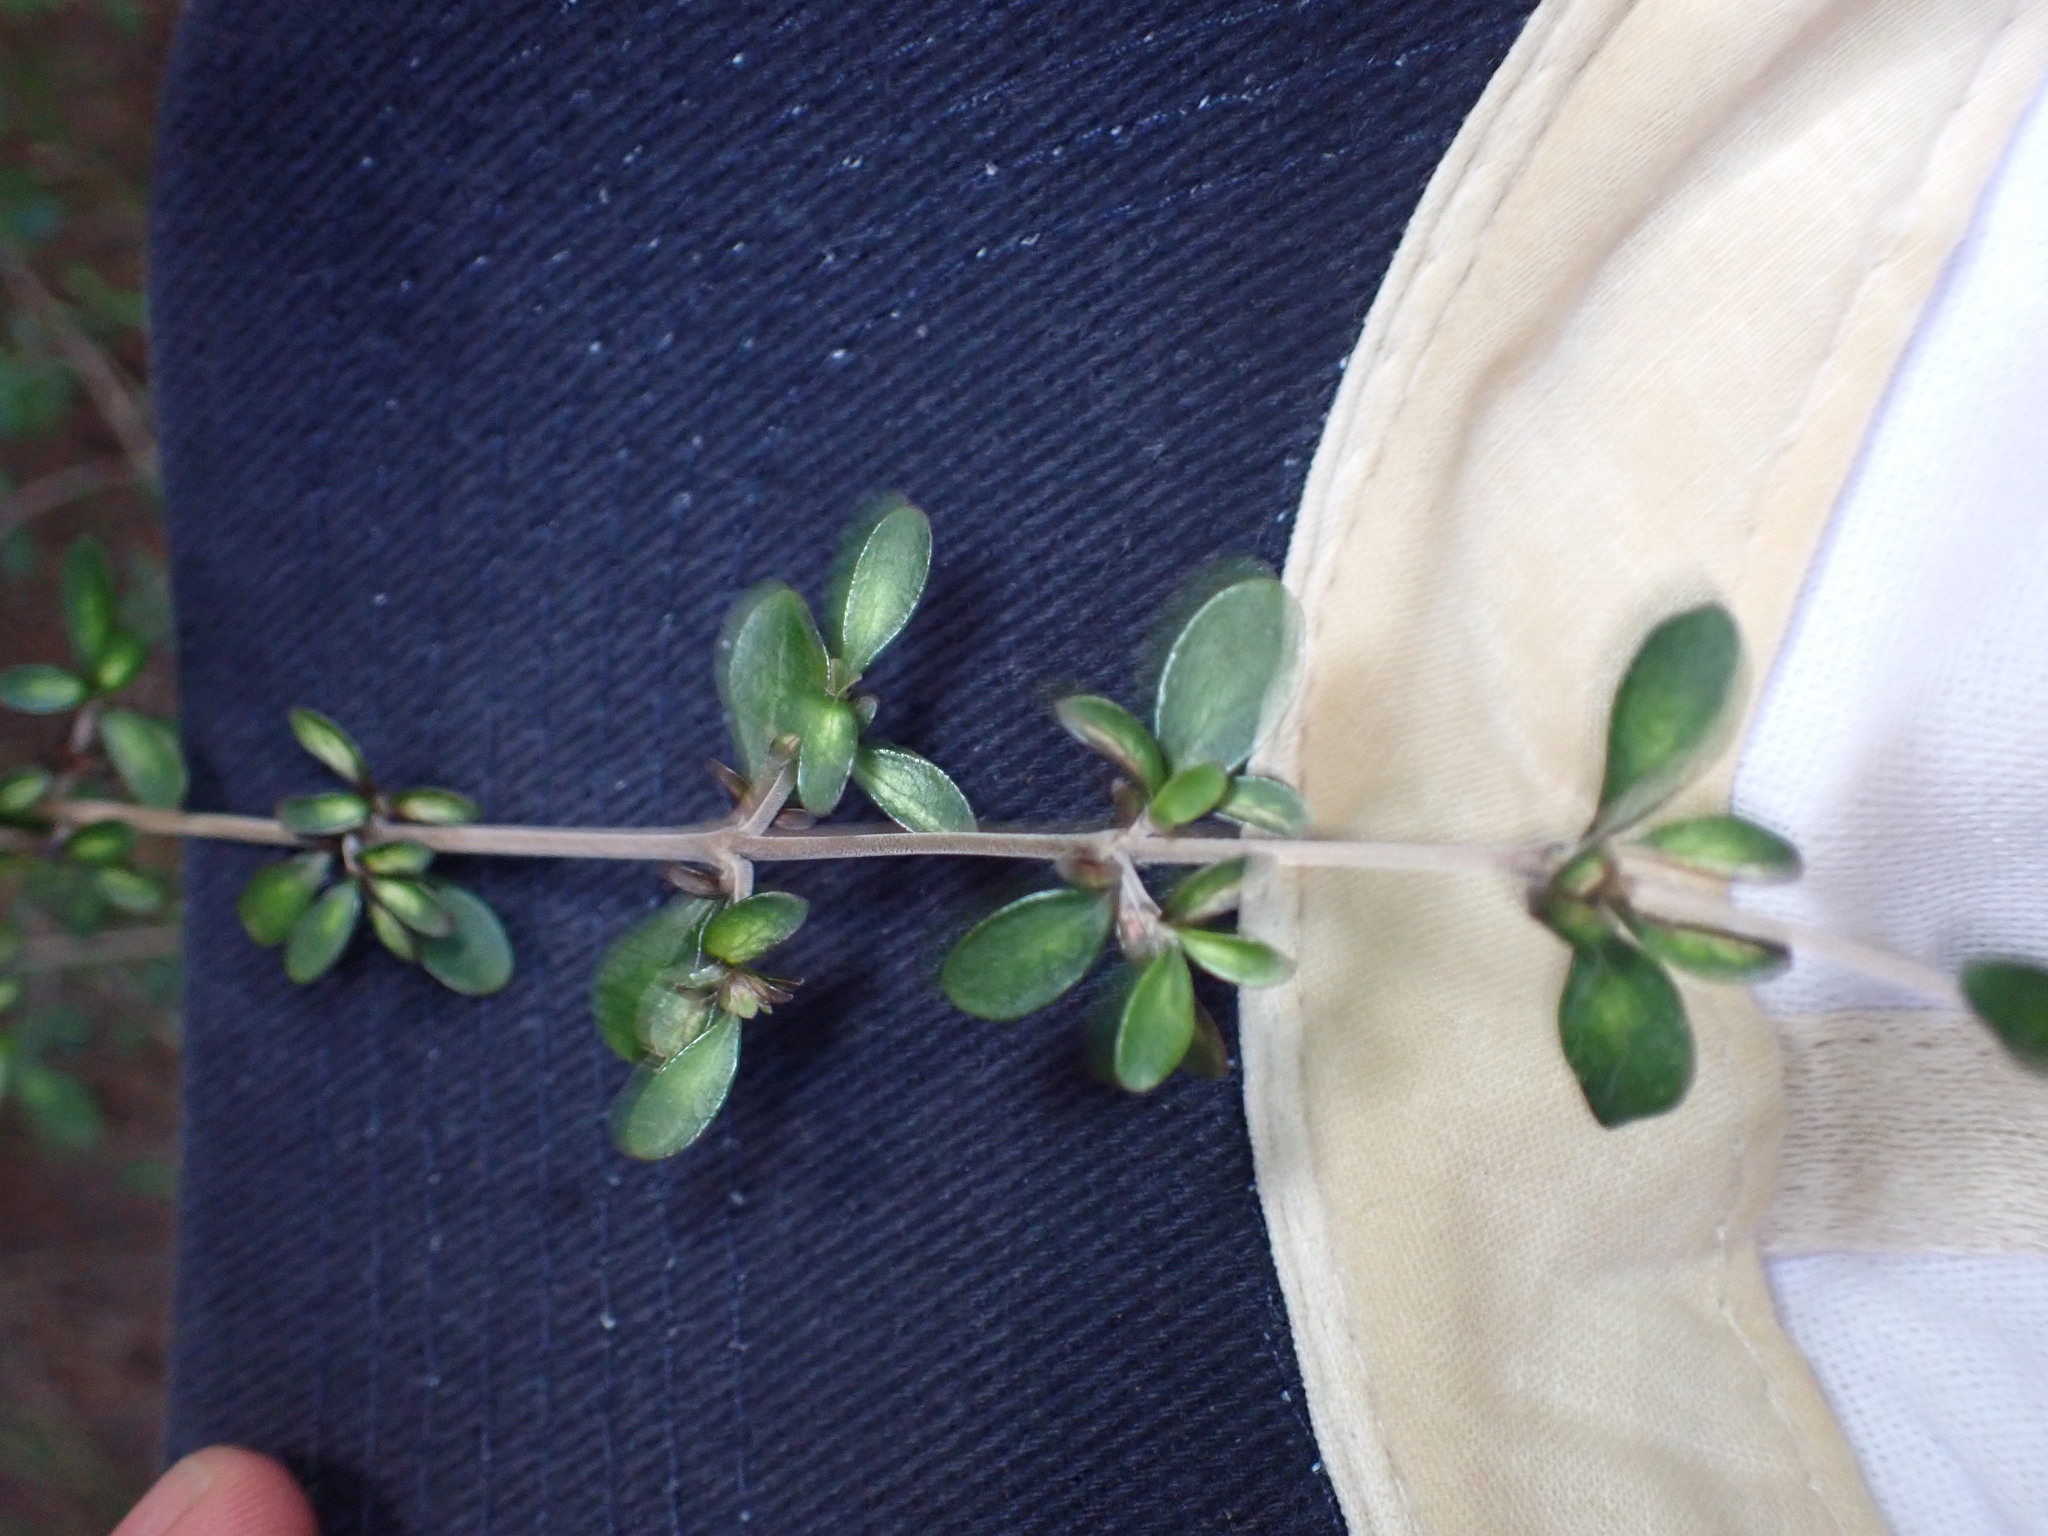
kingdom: Plantae
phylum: Tracheophyta
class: Magnoliopsida
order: Gentianales
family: Rubiaceae
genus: Coprosma
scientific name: Coprosma dumosa
